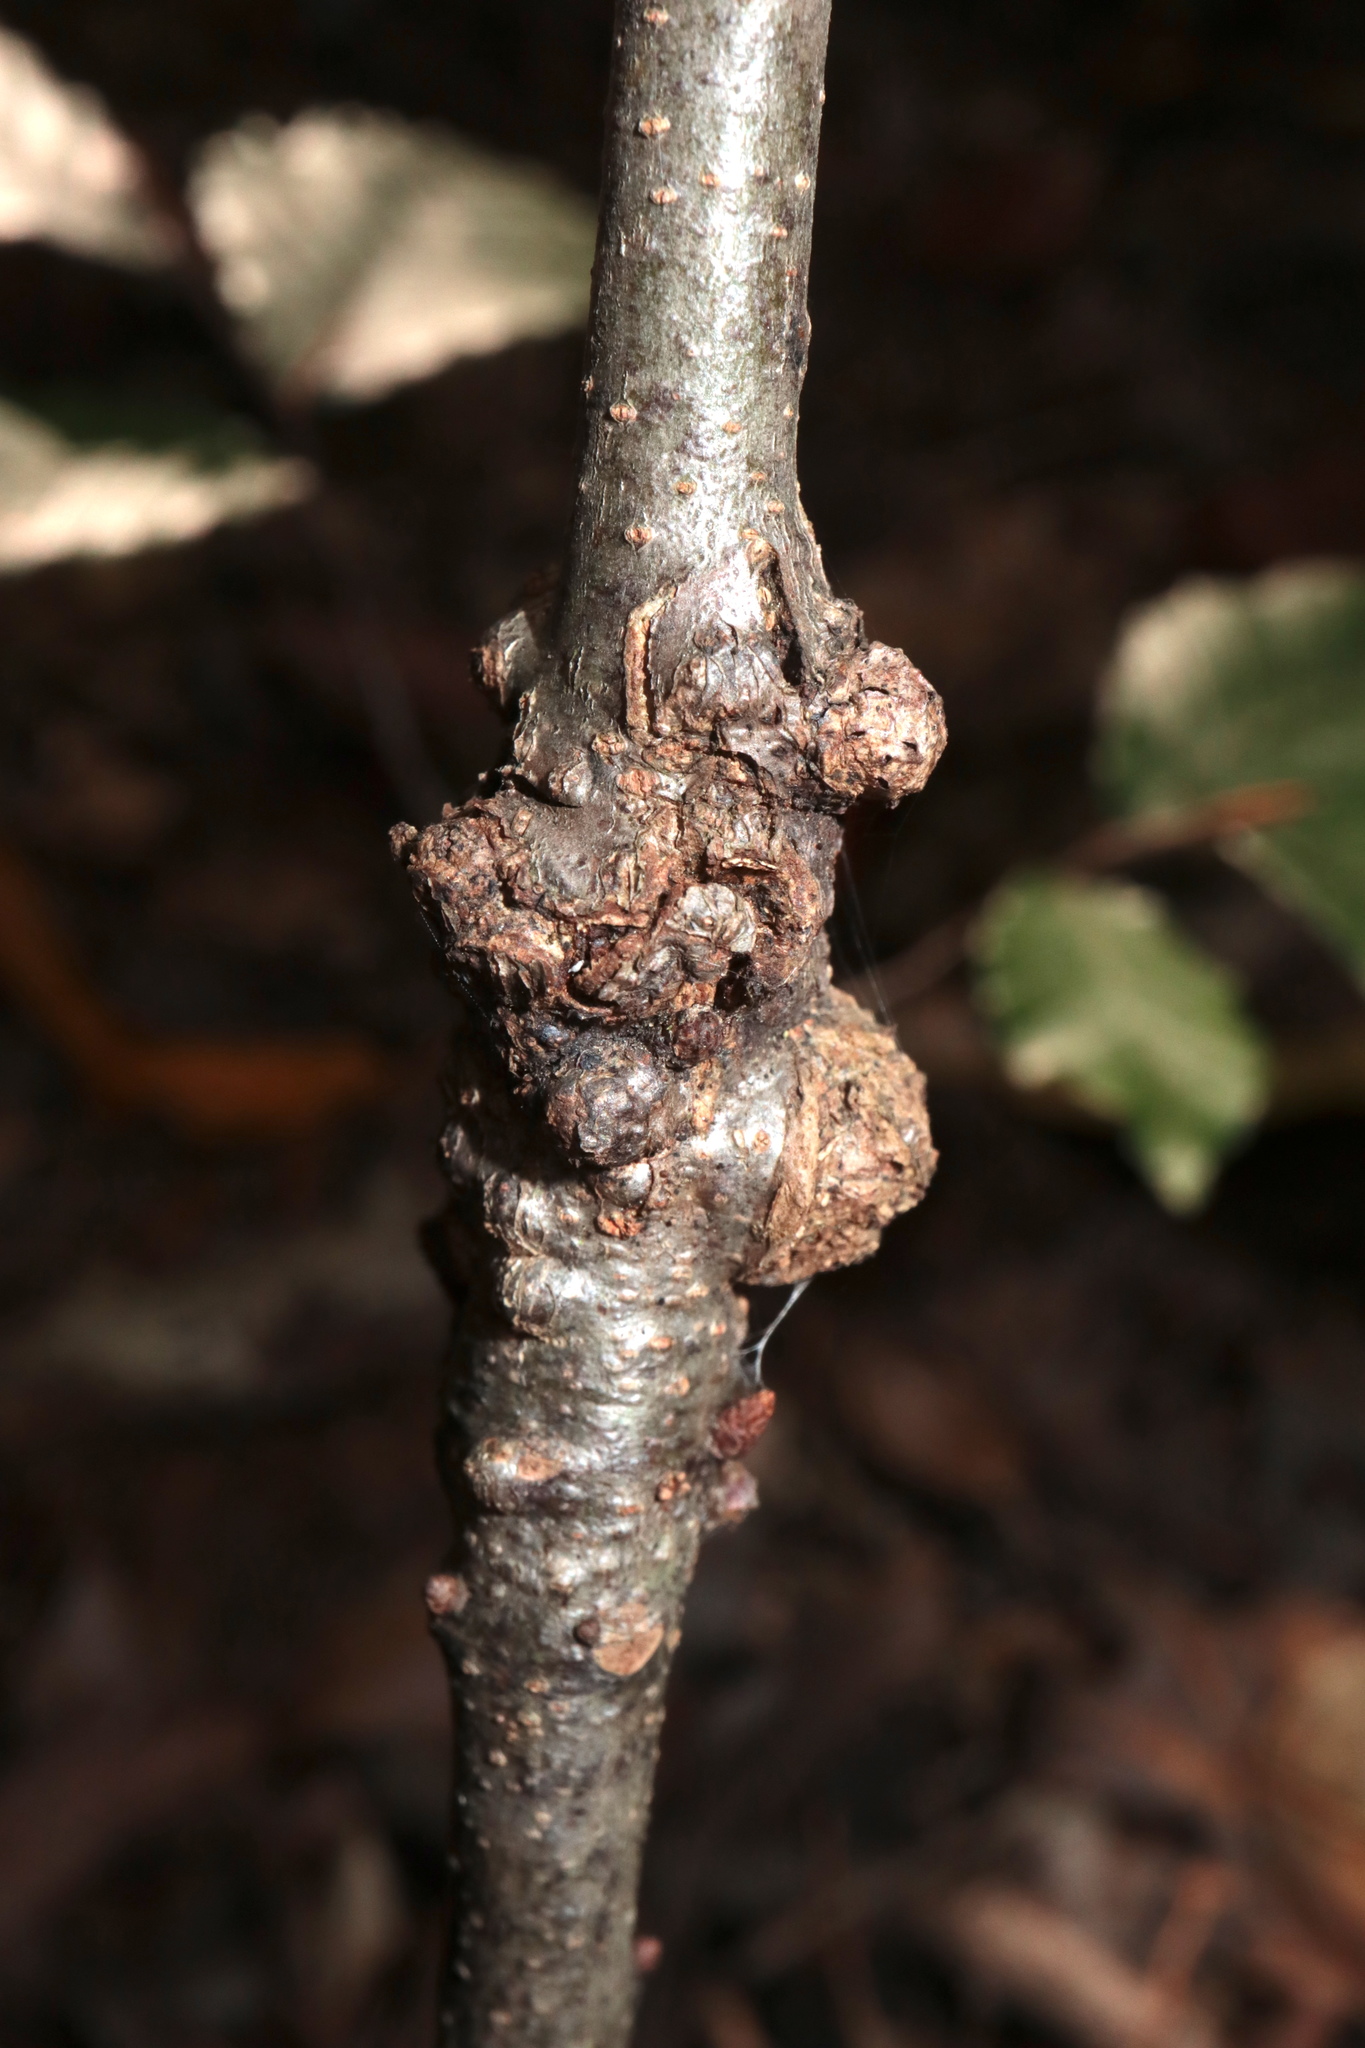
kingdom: Animalia
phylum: Arthropoda
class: Insecta
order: Hymenoptera
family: Cynipidae
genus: Callirhytis
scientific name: Callirhytis
